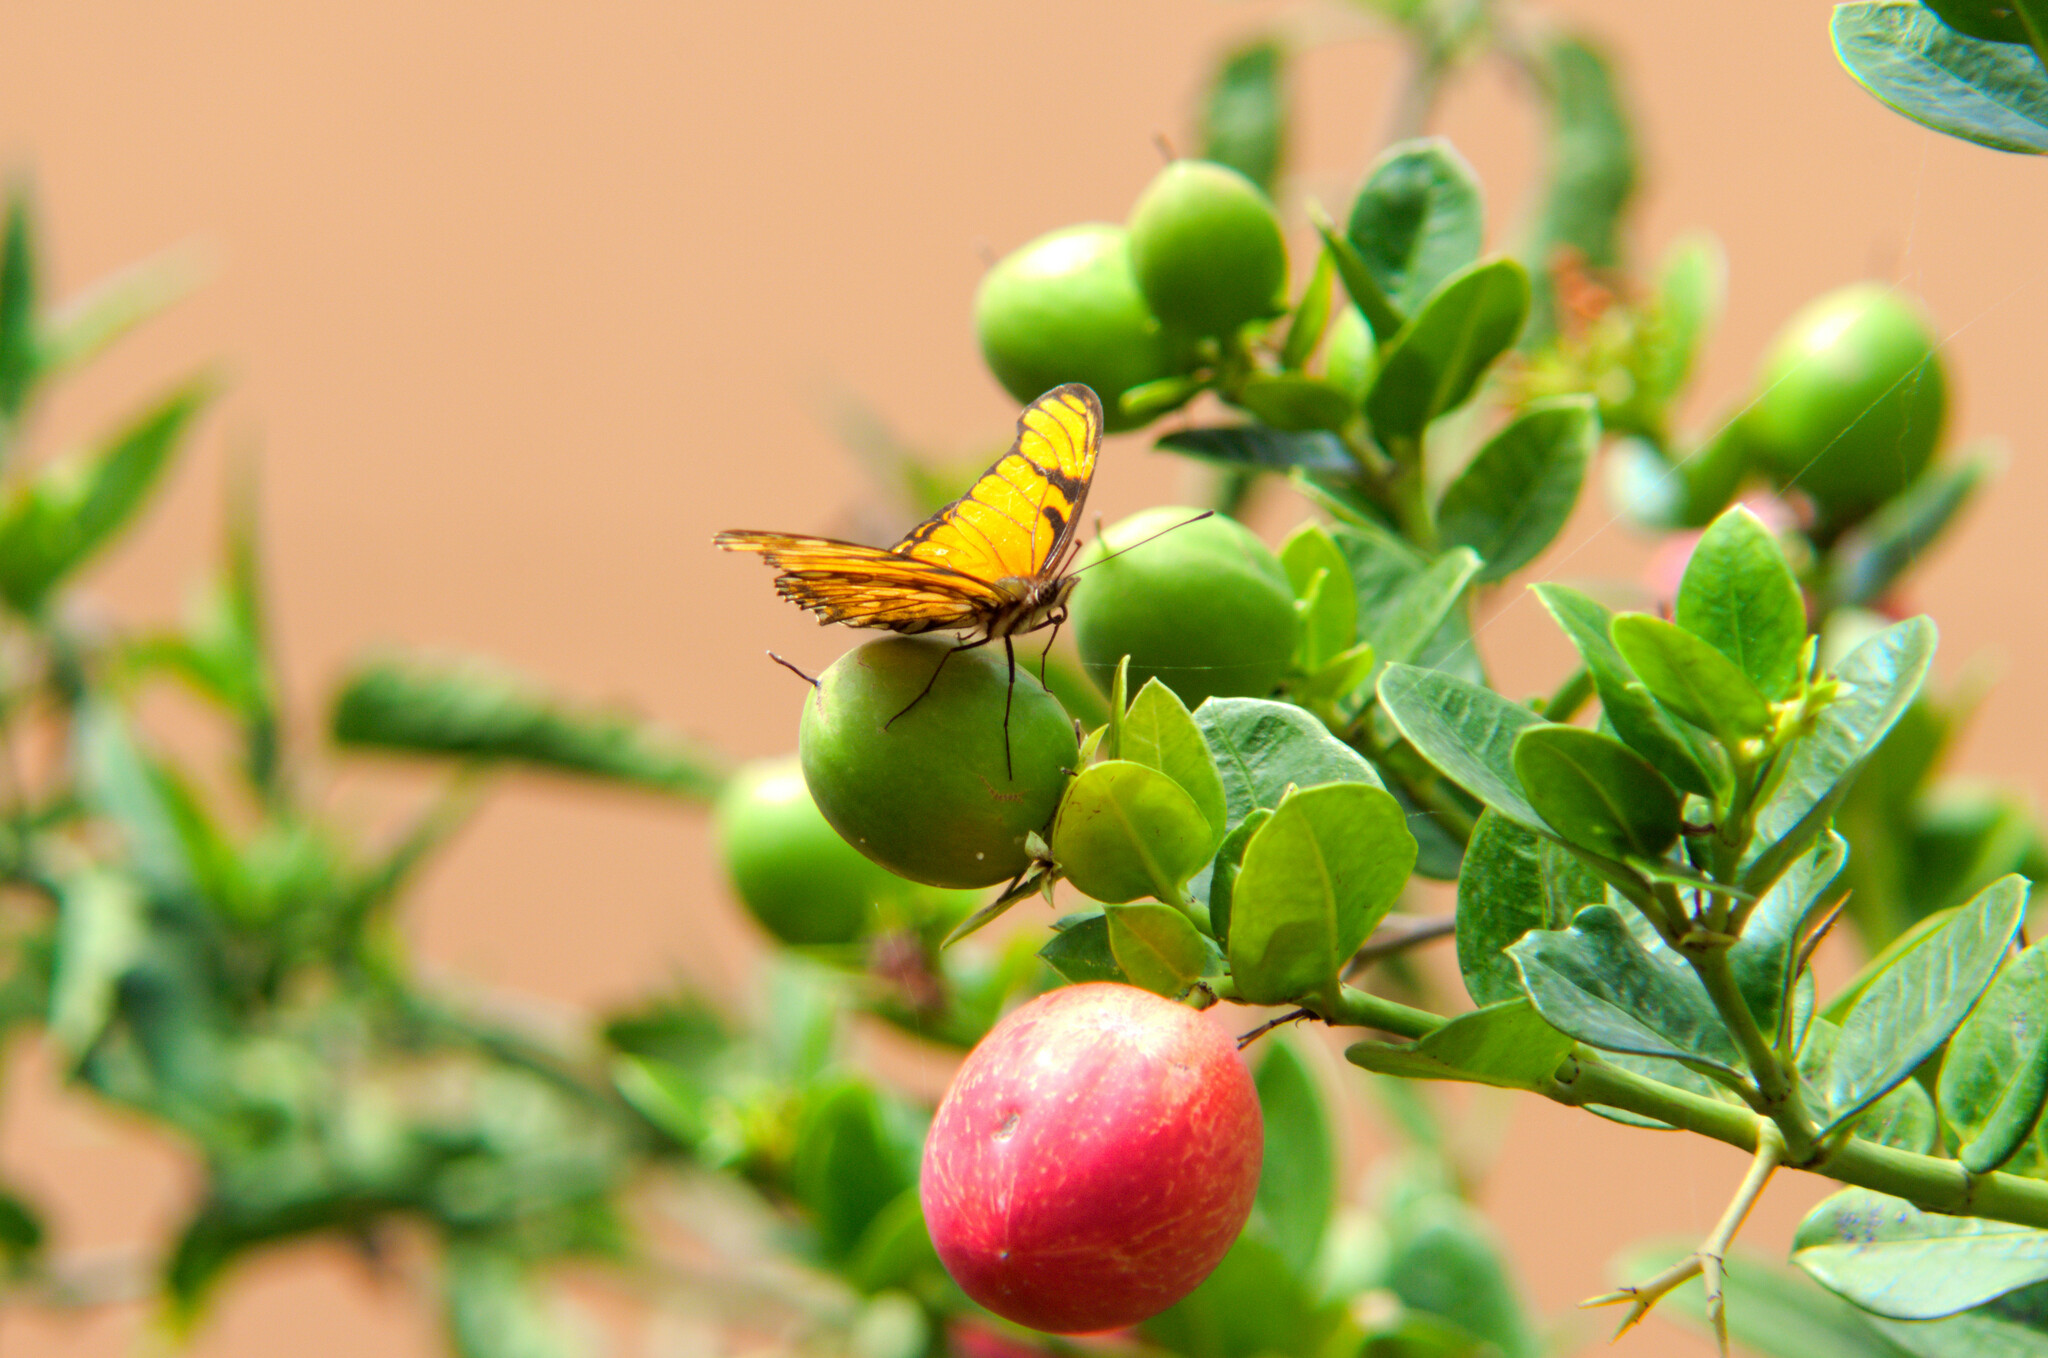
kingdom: Animalia
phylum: Arthropoda
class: Insecta
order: Lepidoptera
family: Nymphalidae
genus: Dione
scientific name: Dione juno
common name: Juno silverspot
